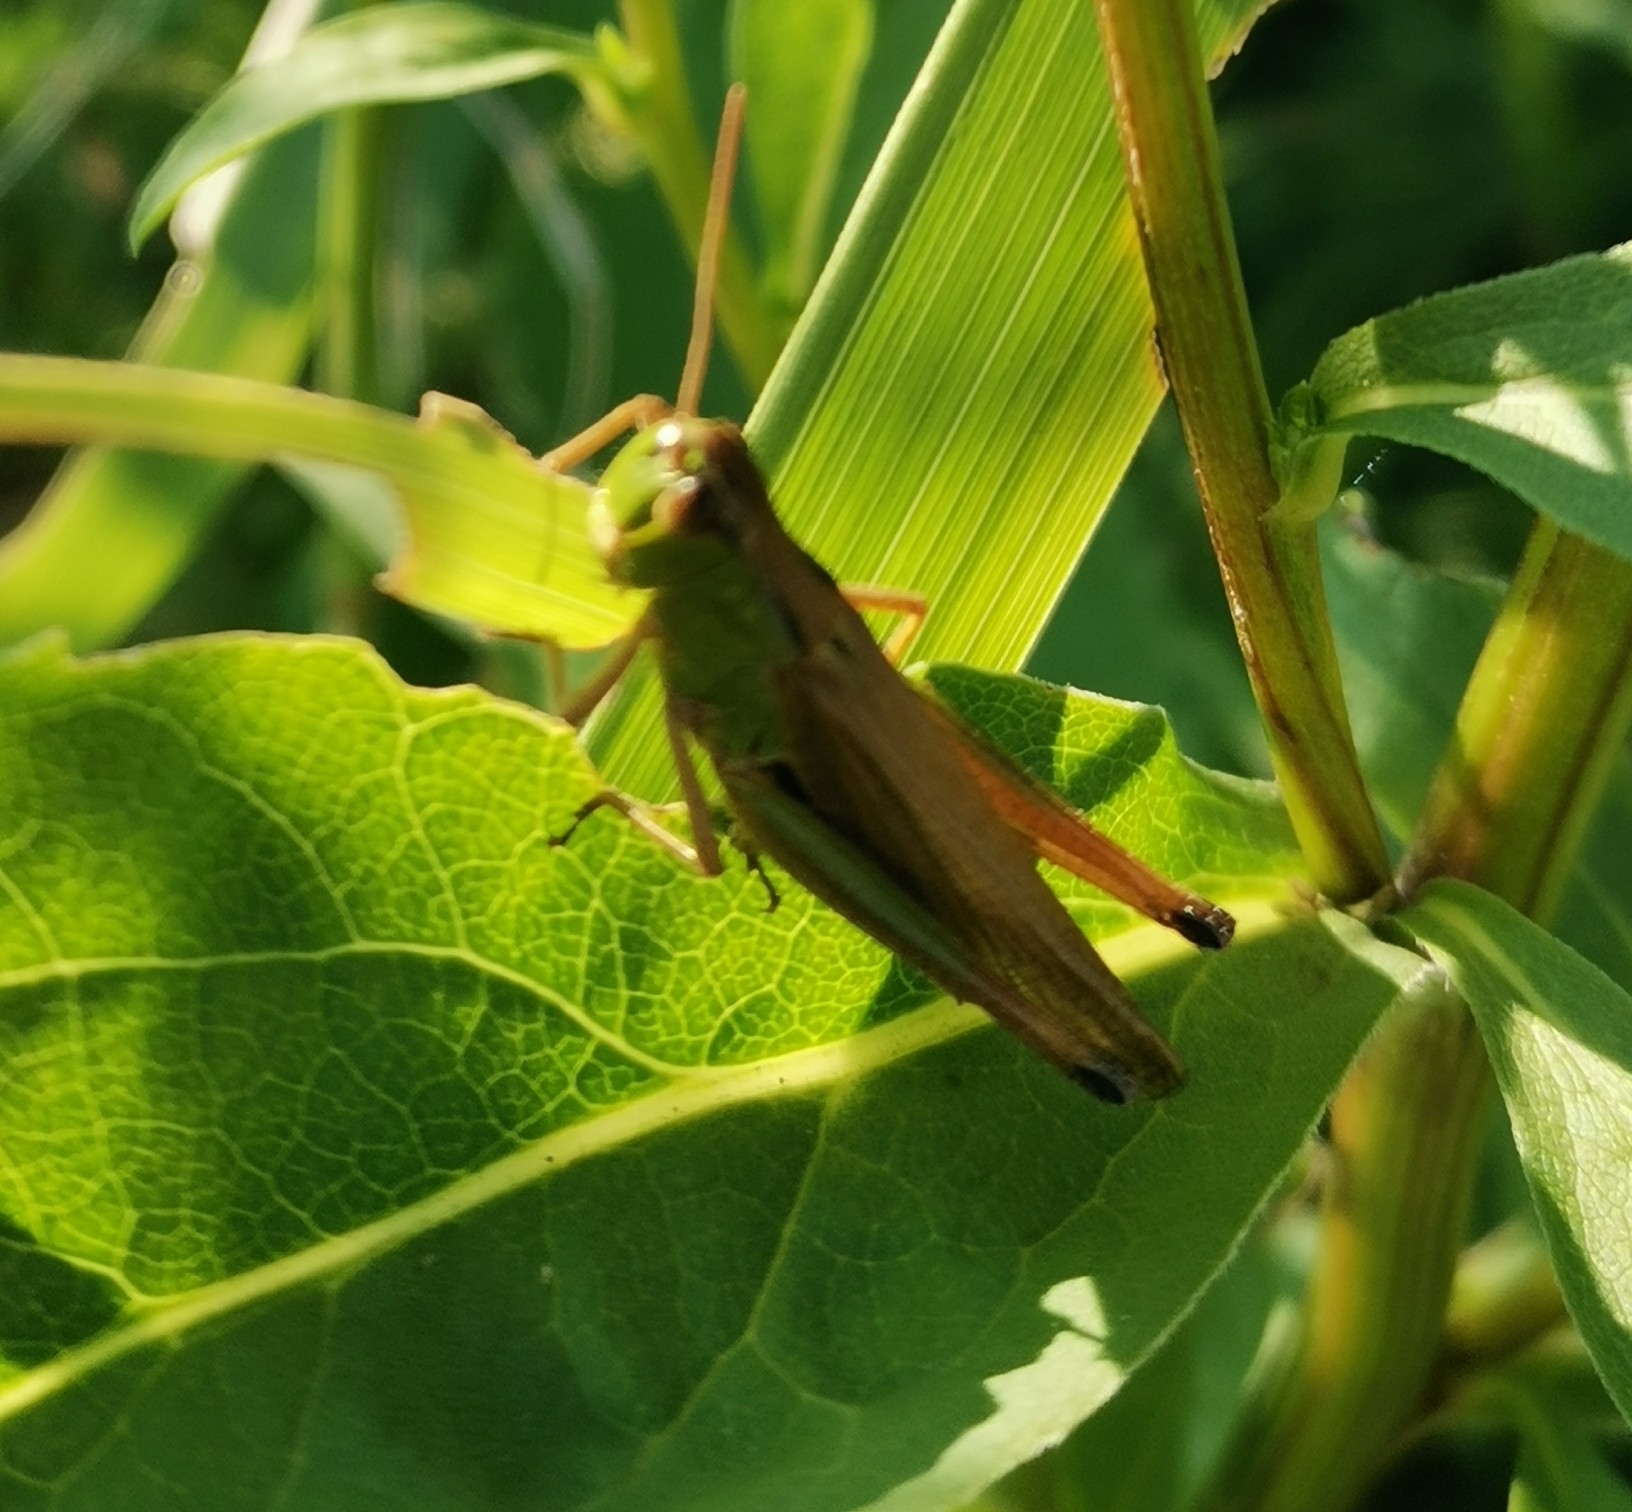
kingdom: Animalia
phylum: Arthropoda
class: Insecta
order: Orthoptera
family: Acrididae
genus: Pseudochorthippus
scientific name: Pseudochorthippus parallelus
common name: Meadow grasshopper
